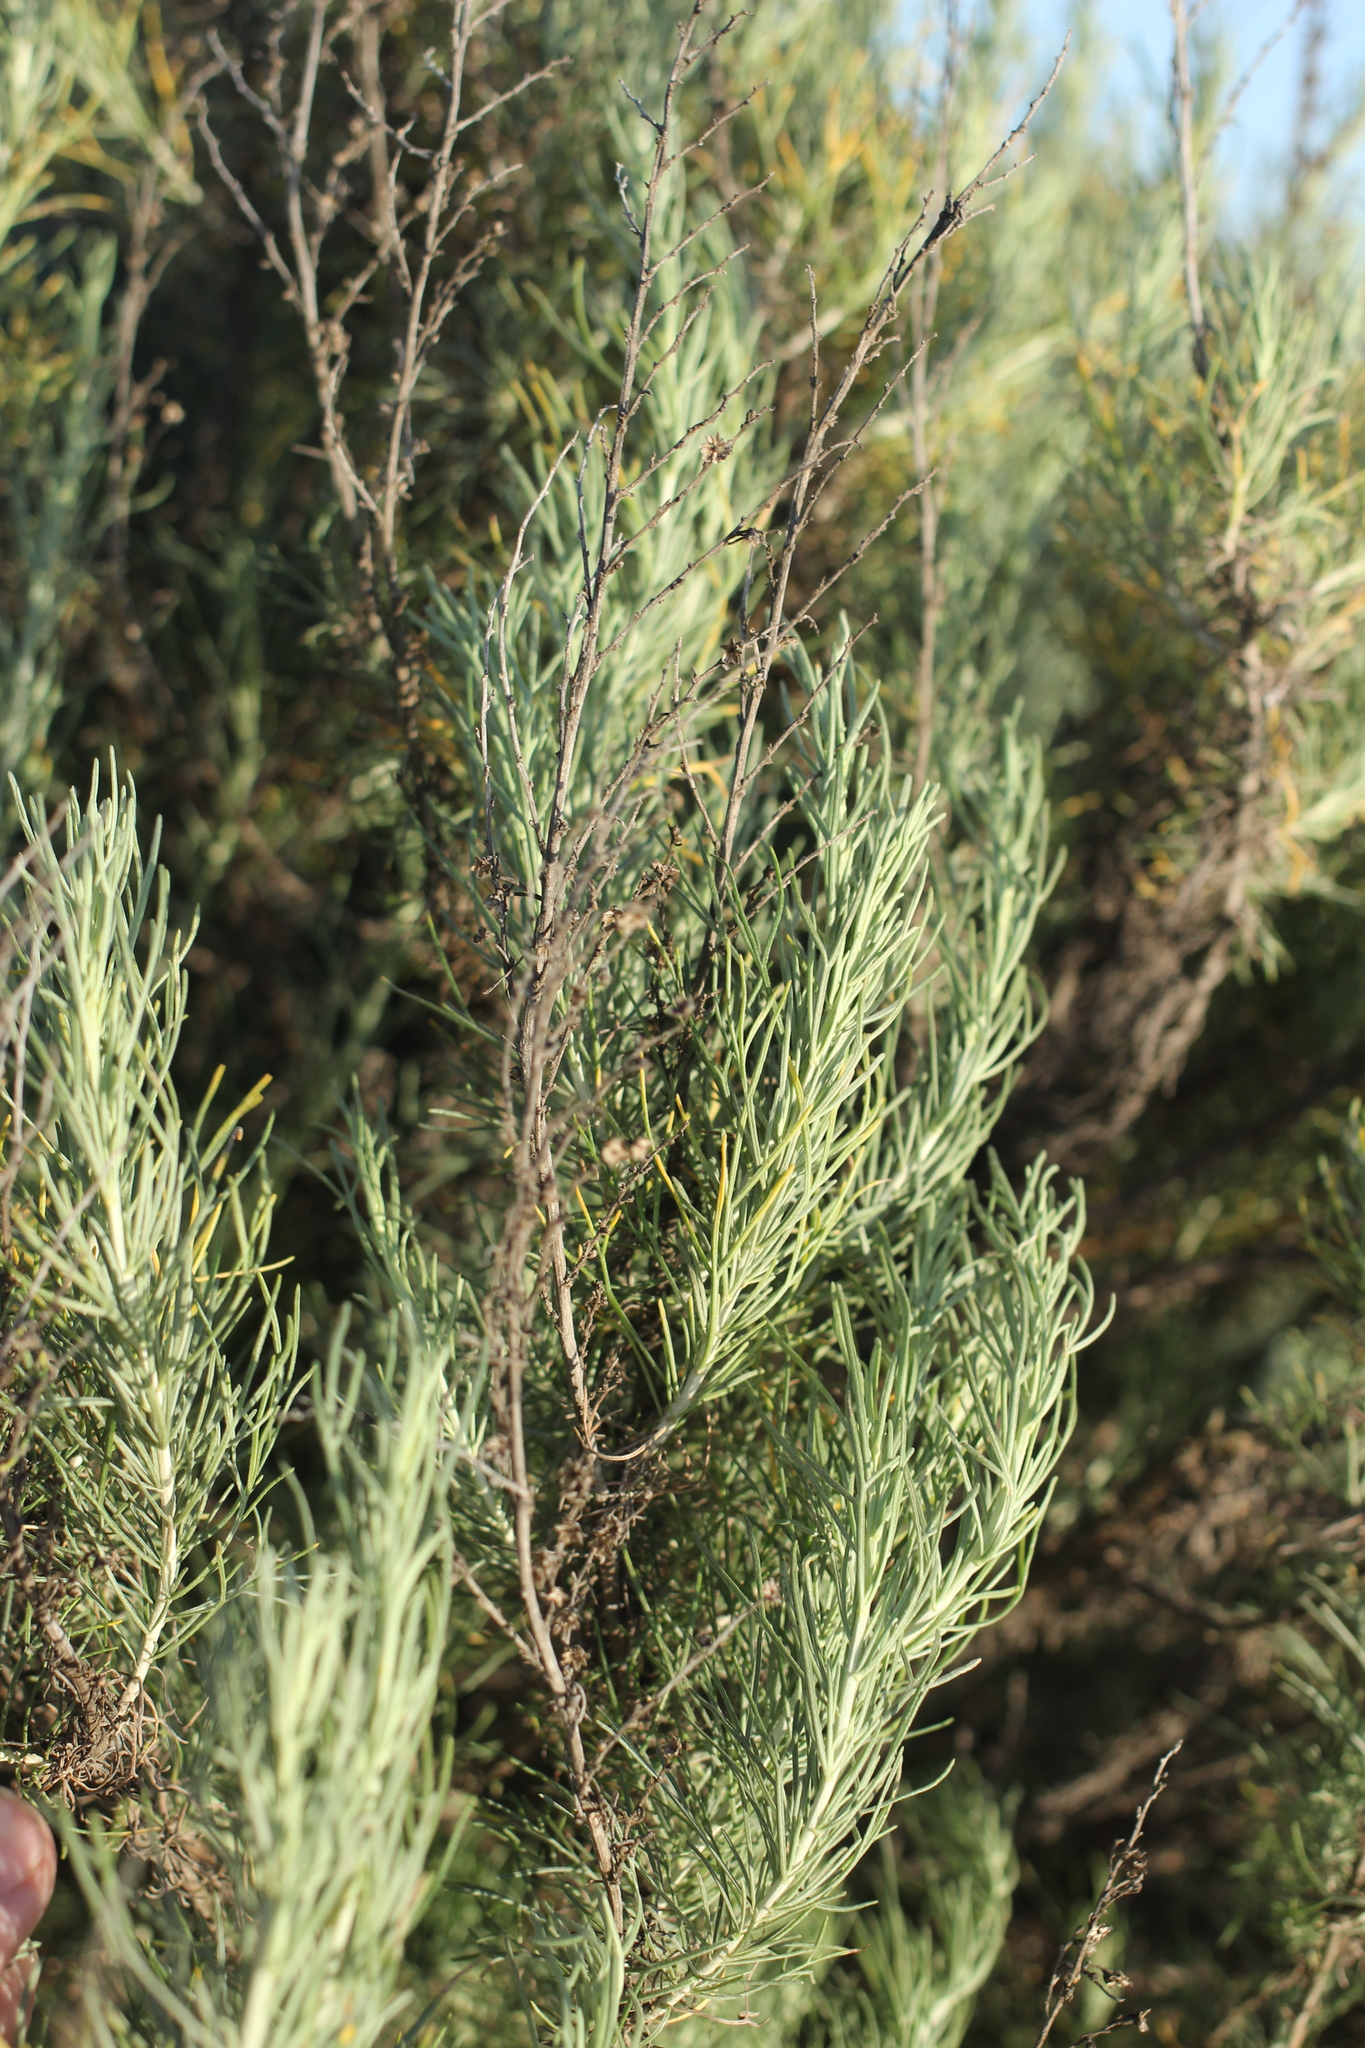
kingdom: Plantae
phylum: Tracheophyta
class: Magnoliopsida
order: Asterales
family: Asteraceae
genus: Artemisia
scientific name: Artemisia californica
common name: California sagebrush
